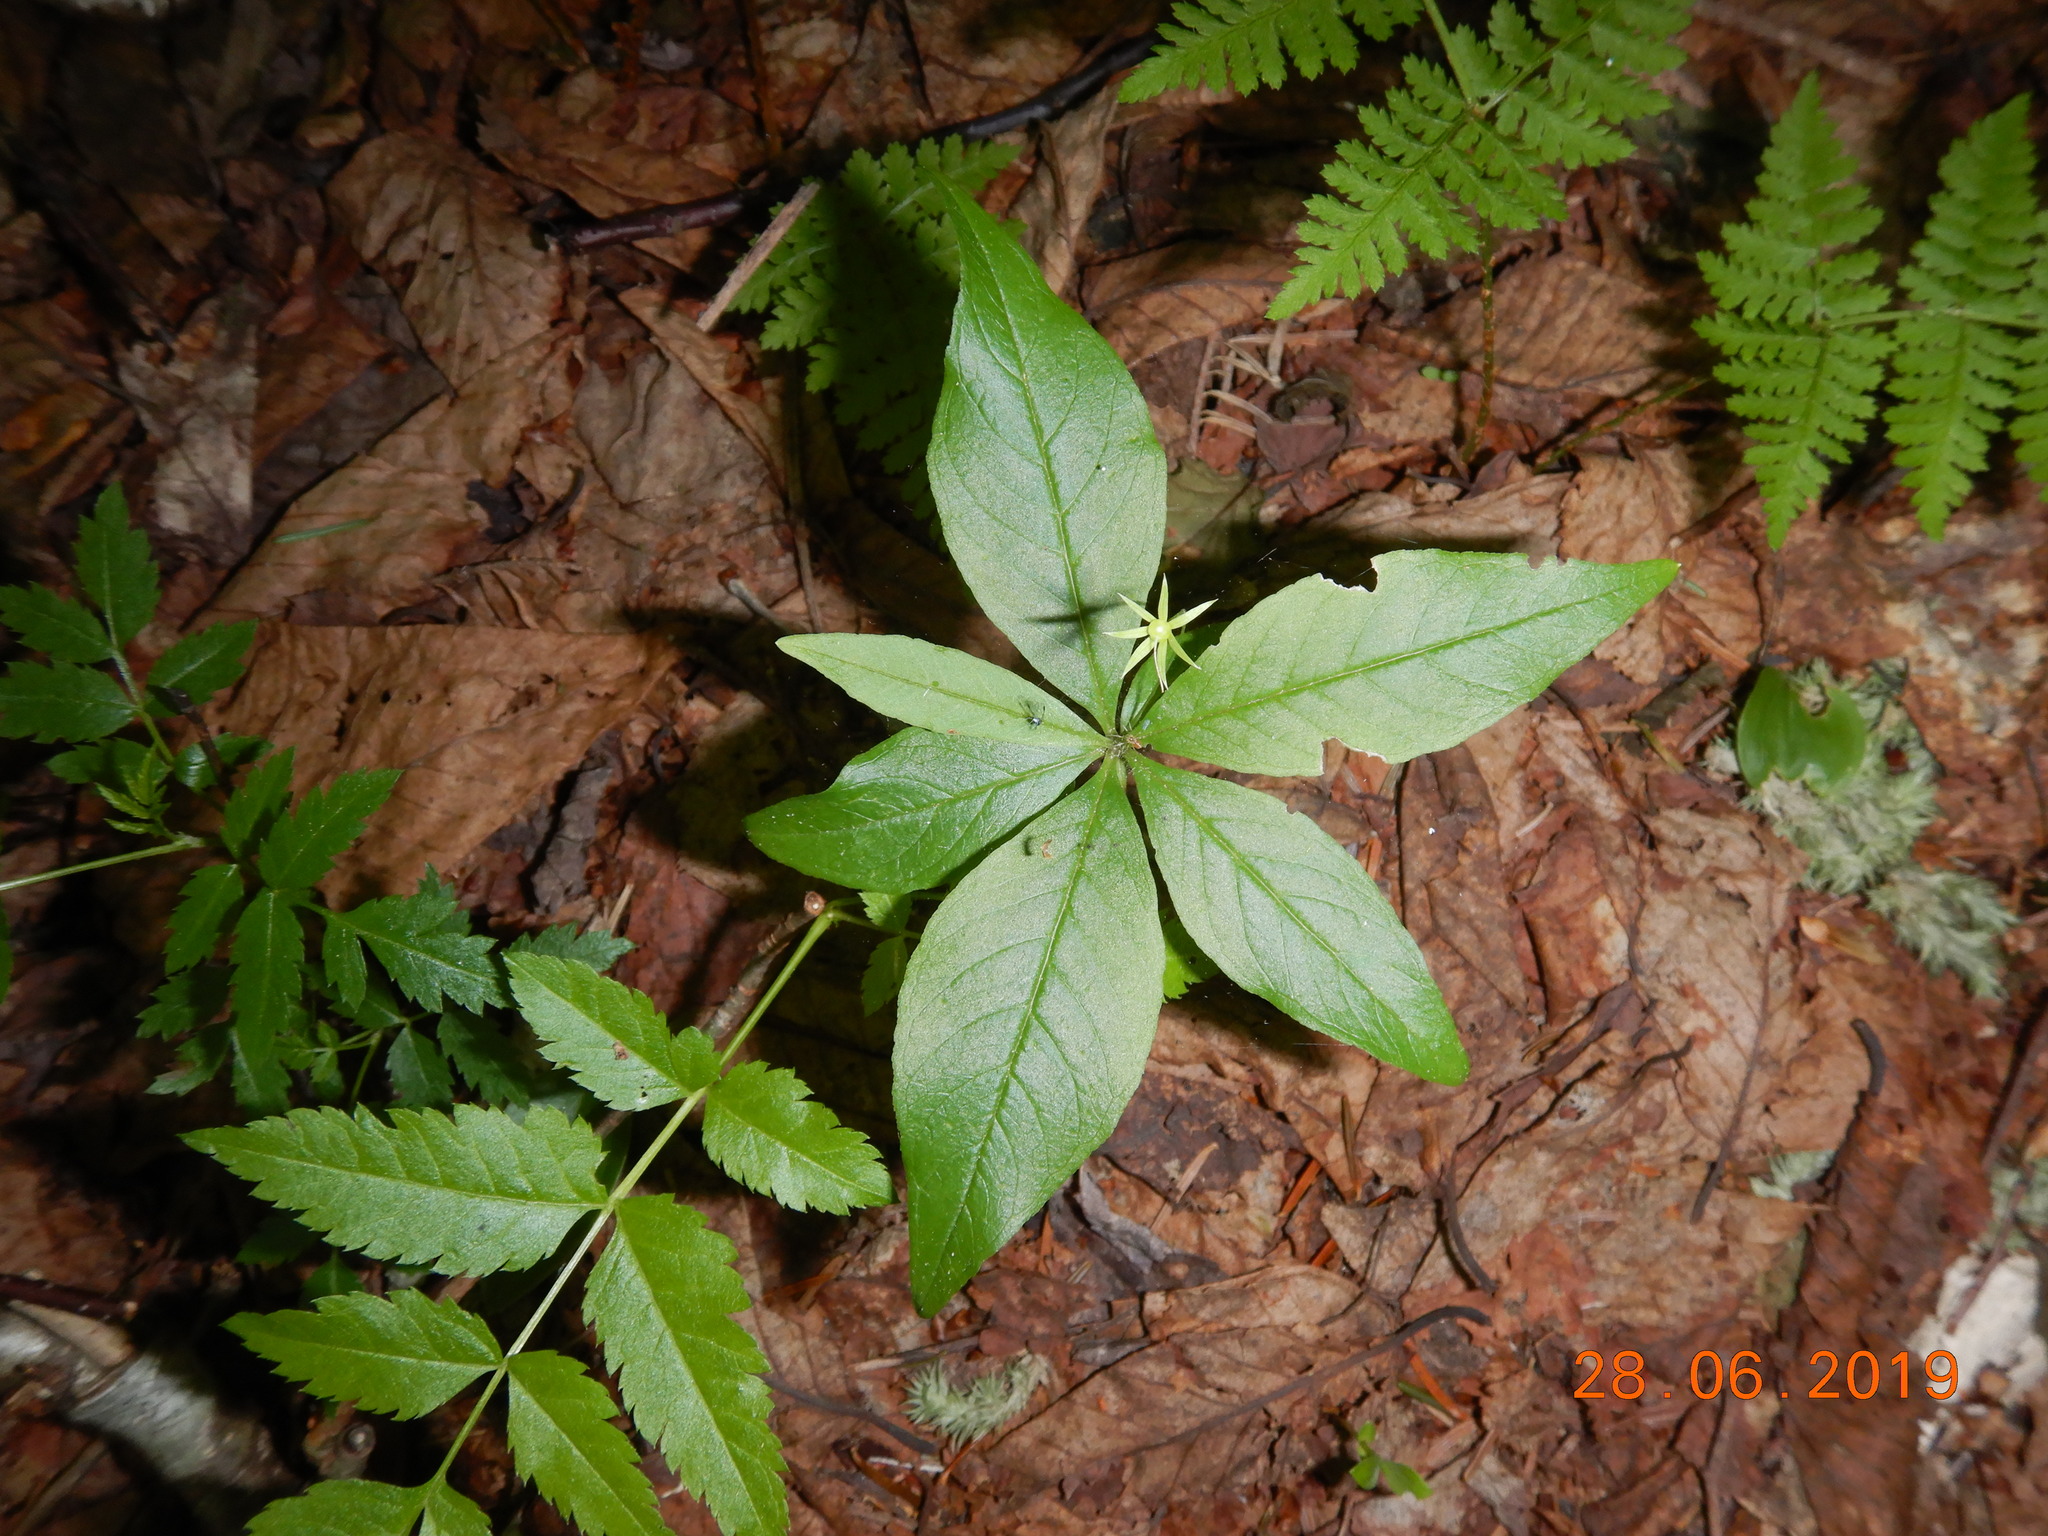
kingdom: Plantae
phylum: Tracheophyta
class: Magnoliopsida
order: Ericales
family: Primulaceae
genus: Lysimachia
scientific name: Lysimachia borealis
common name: American starflower
